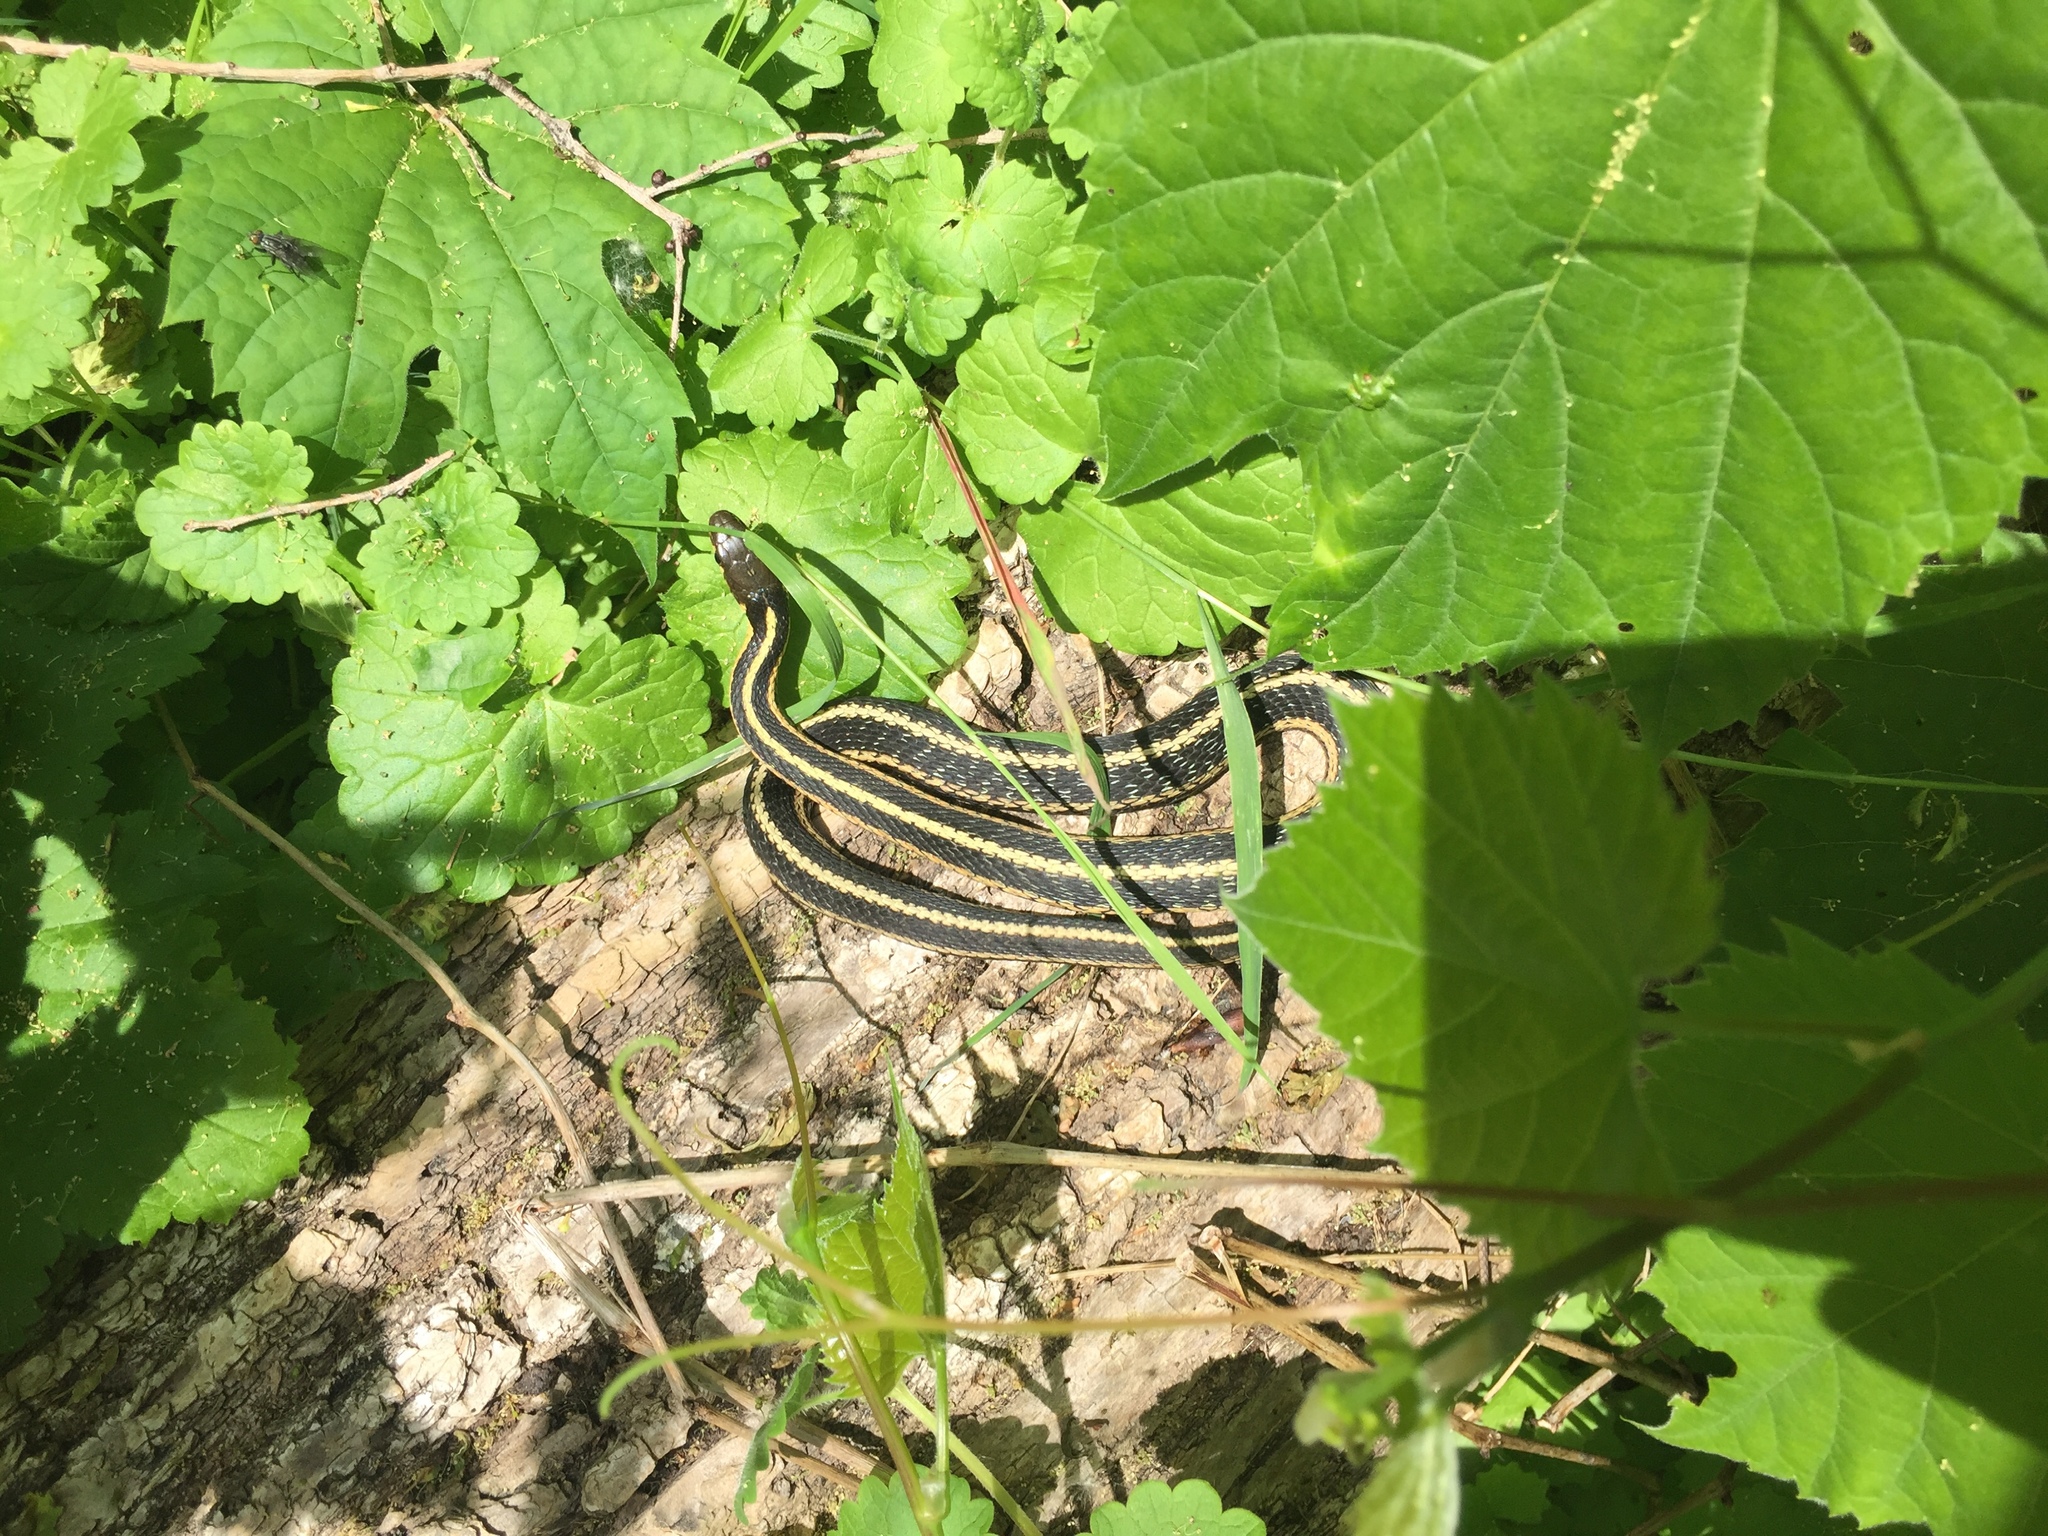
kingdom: Animalia
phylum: Chordata
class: Squamata
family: Colubridae
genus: Thamnophis
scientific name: Thamnophis sirtalis
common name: Common garter snake
